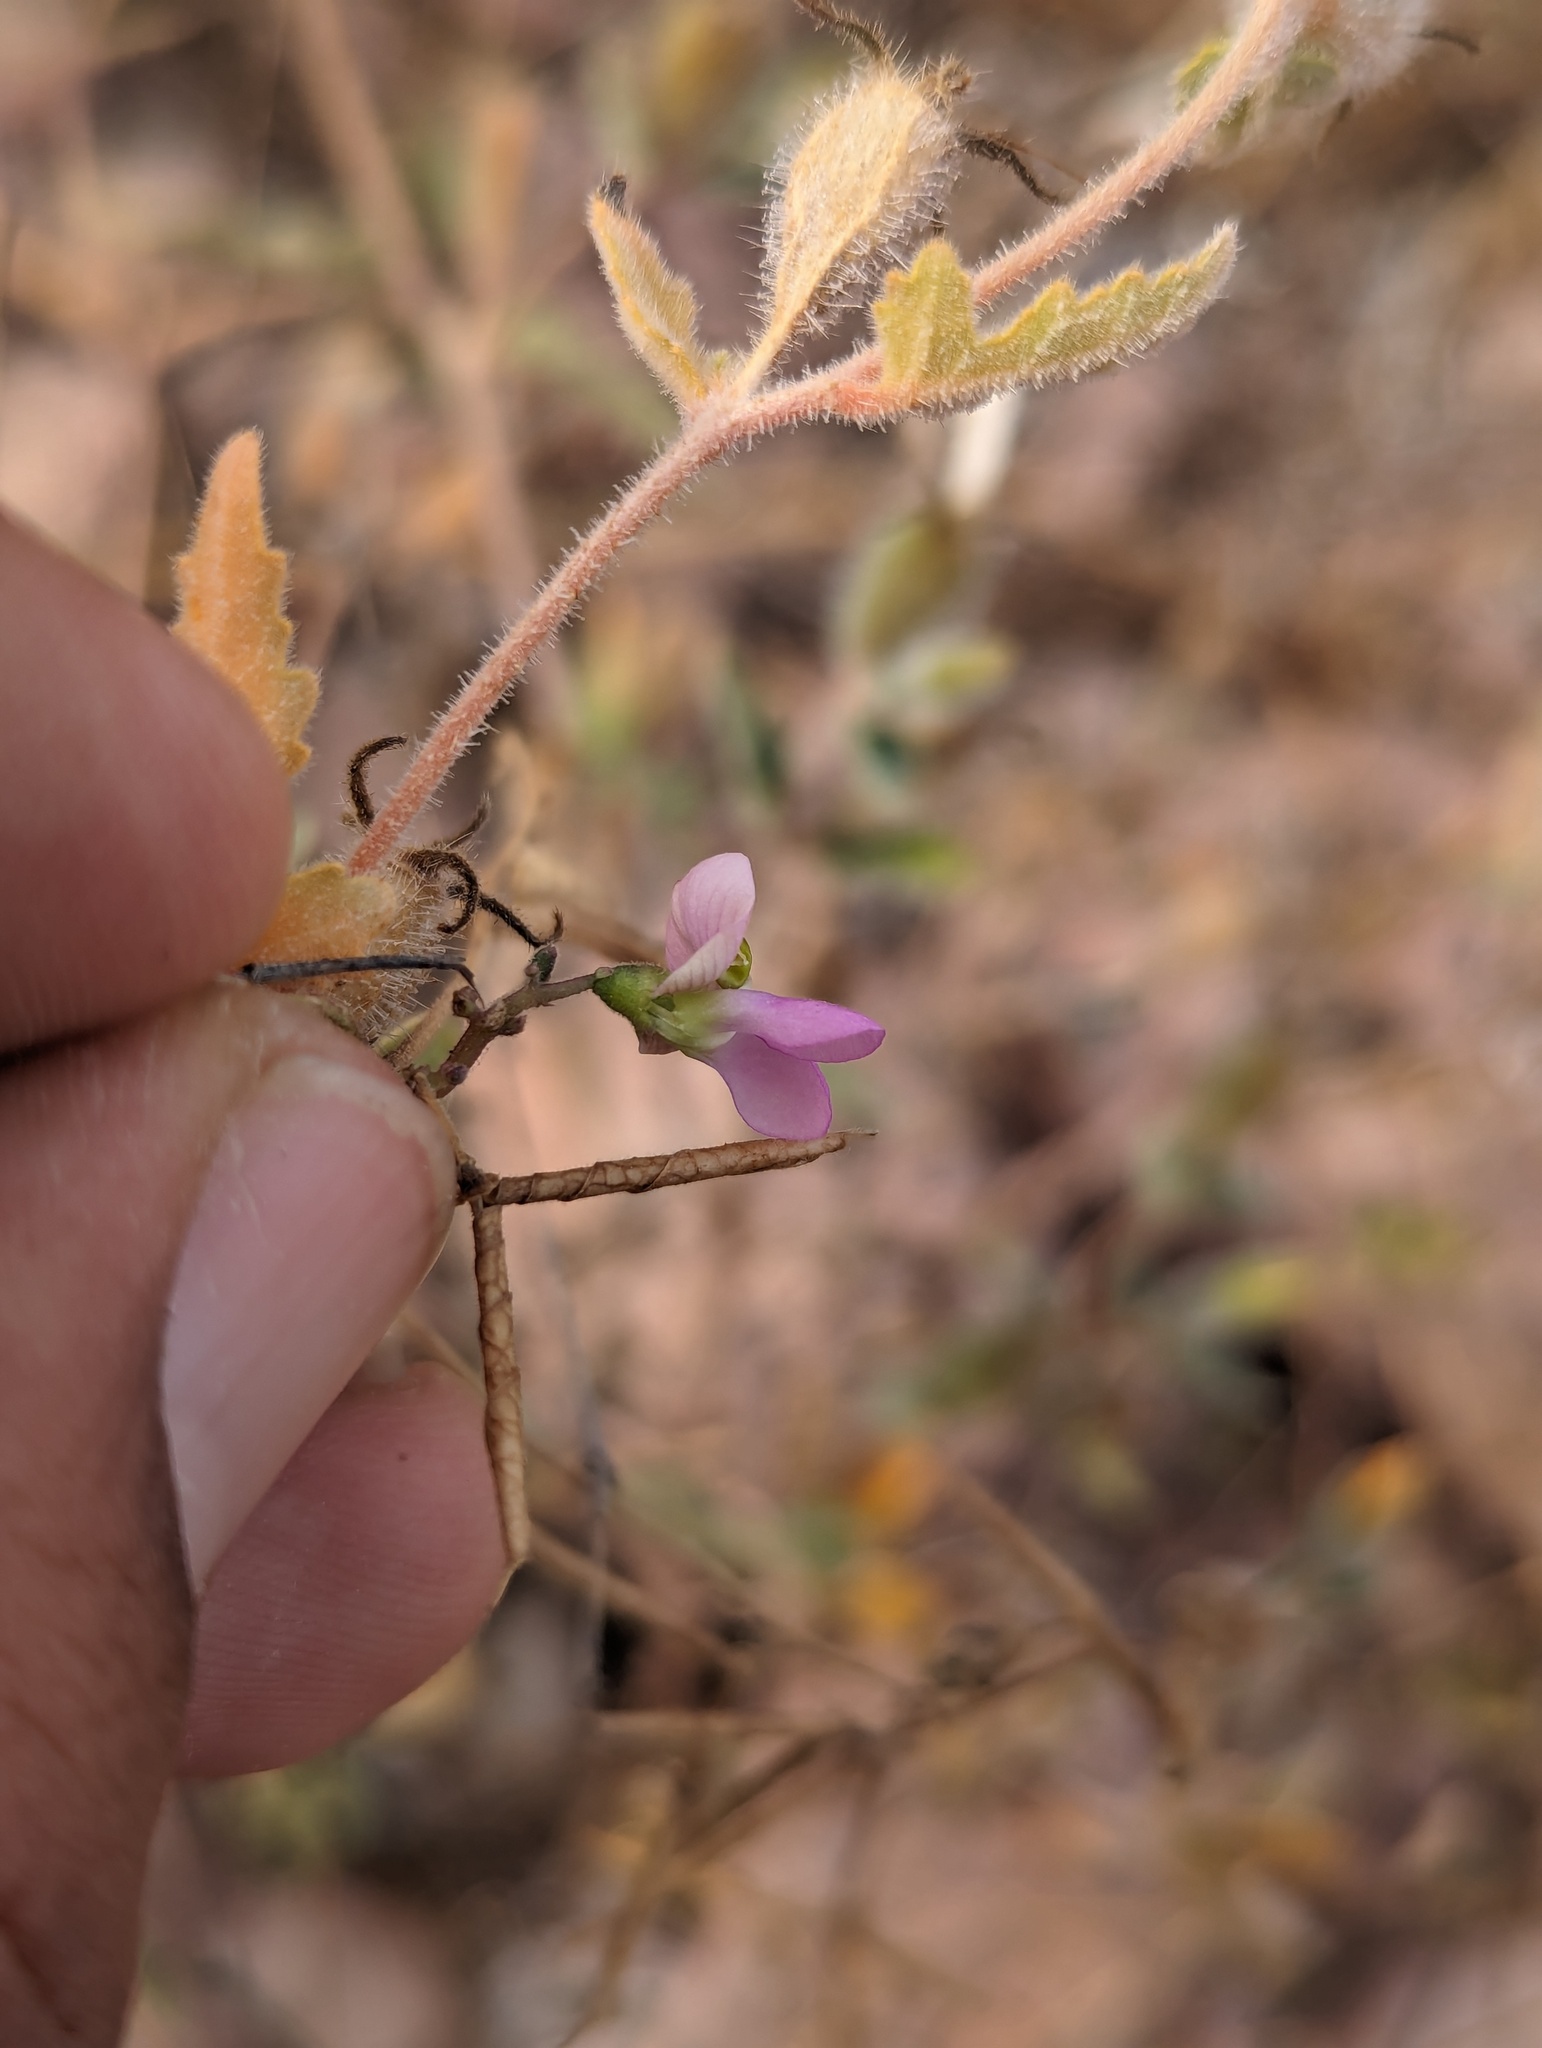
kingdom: Plantae
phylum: Tracheophyta
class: Magnoliopsida
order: Fabales
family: Fabaceae
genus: Phaseolus
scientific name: Phaseolus filiformis
